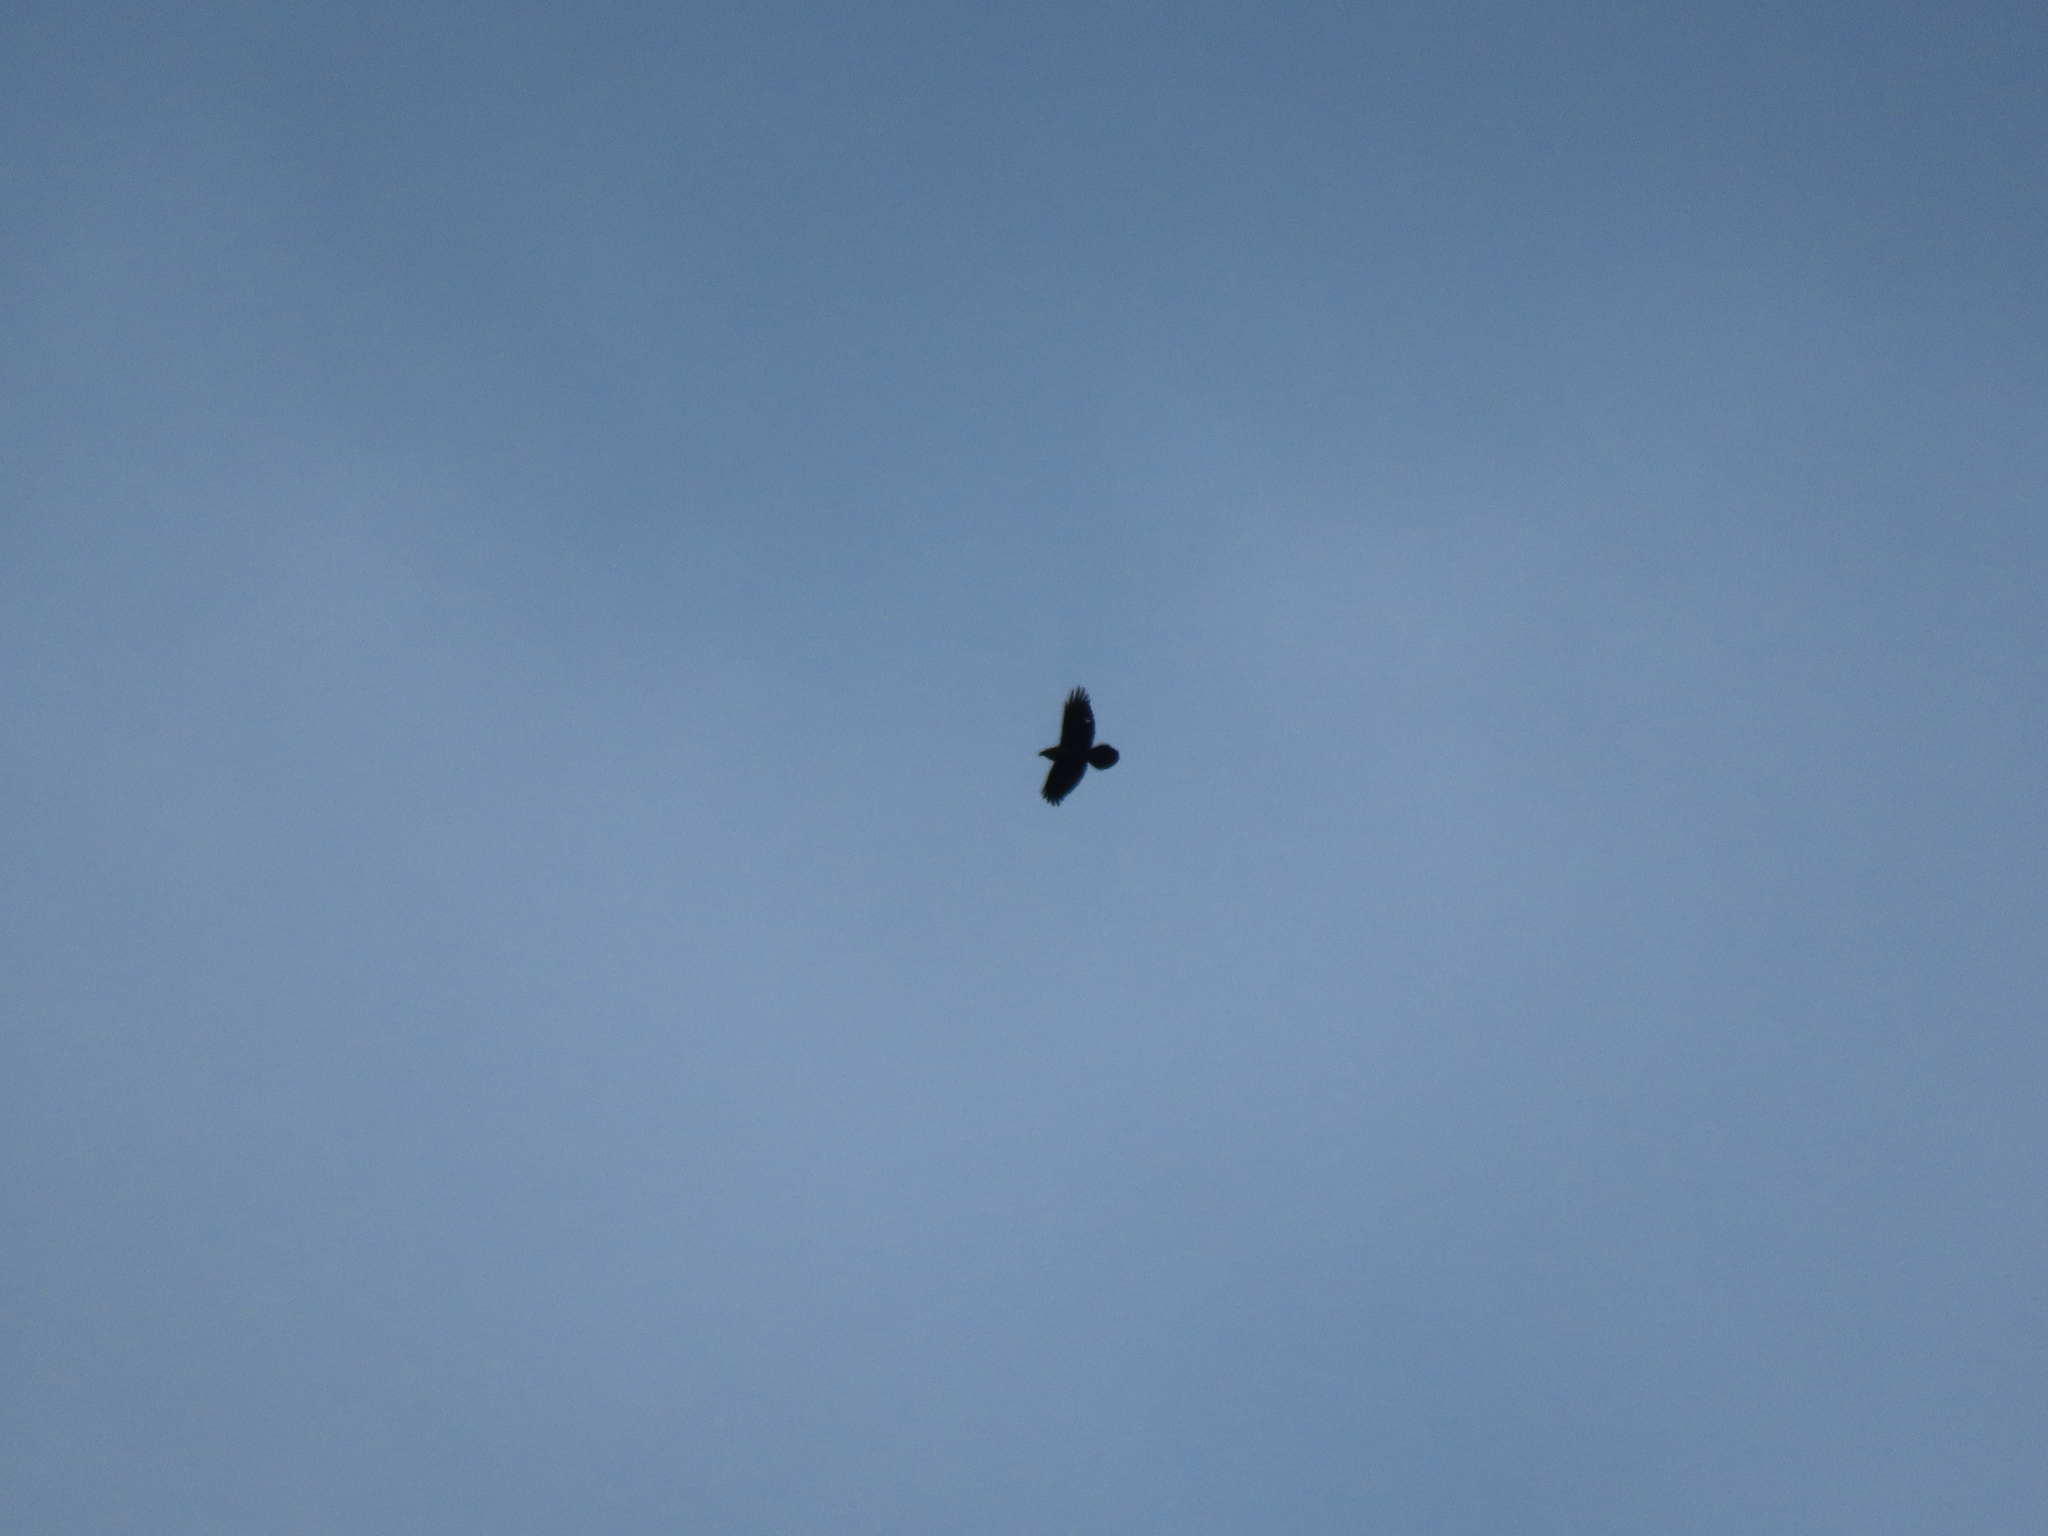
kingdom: Animalia
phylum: Chordata
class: Aves
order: Passeriformes
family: Corvidae
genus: Corvus
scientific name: Corvus corax
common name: Common raven
